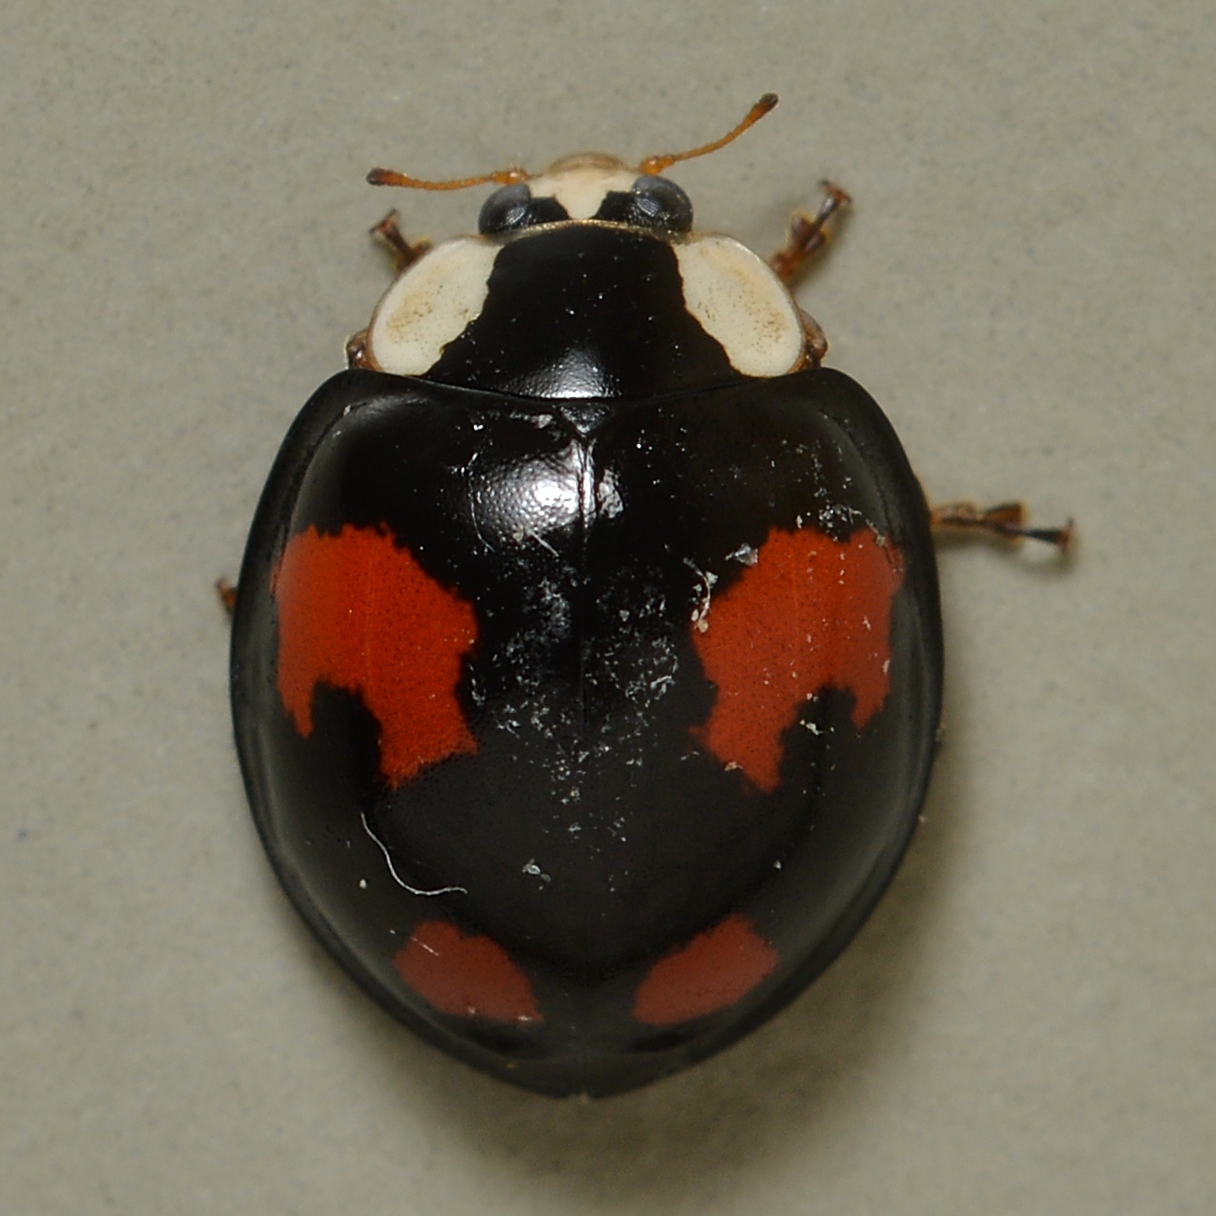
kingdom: Animalia
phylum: Arthropoda
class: Insecta
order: Coleoptera
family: Coccinellidae
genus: Harmonia
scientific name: Harmonia axyridis
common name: Harlequin ladybird
